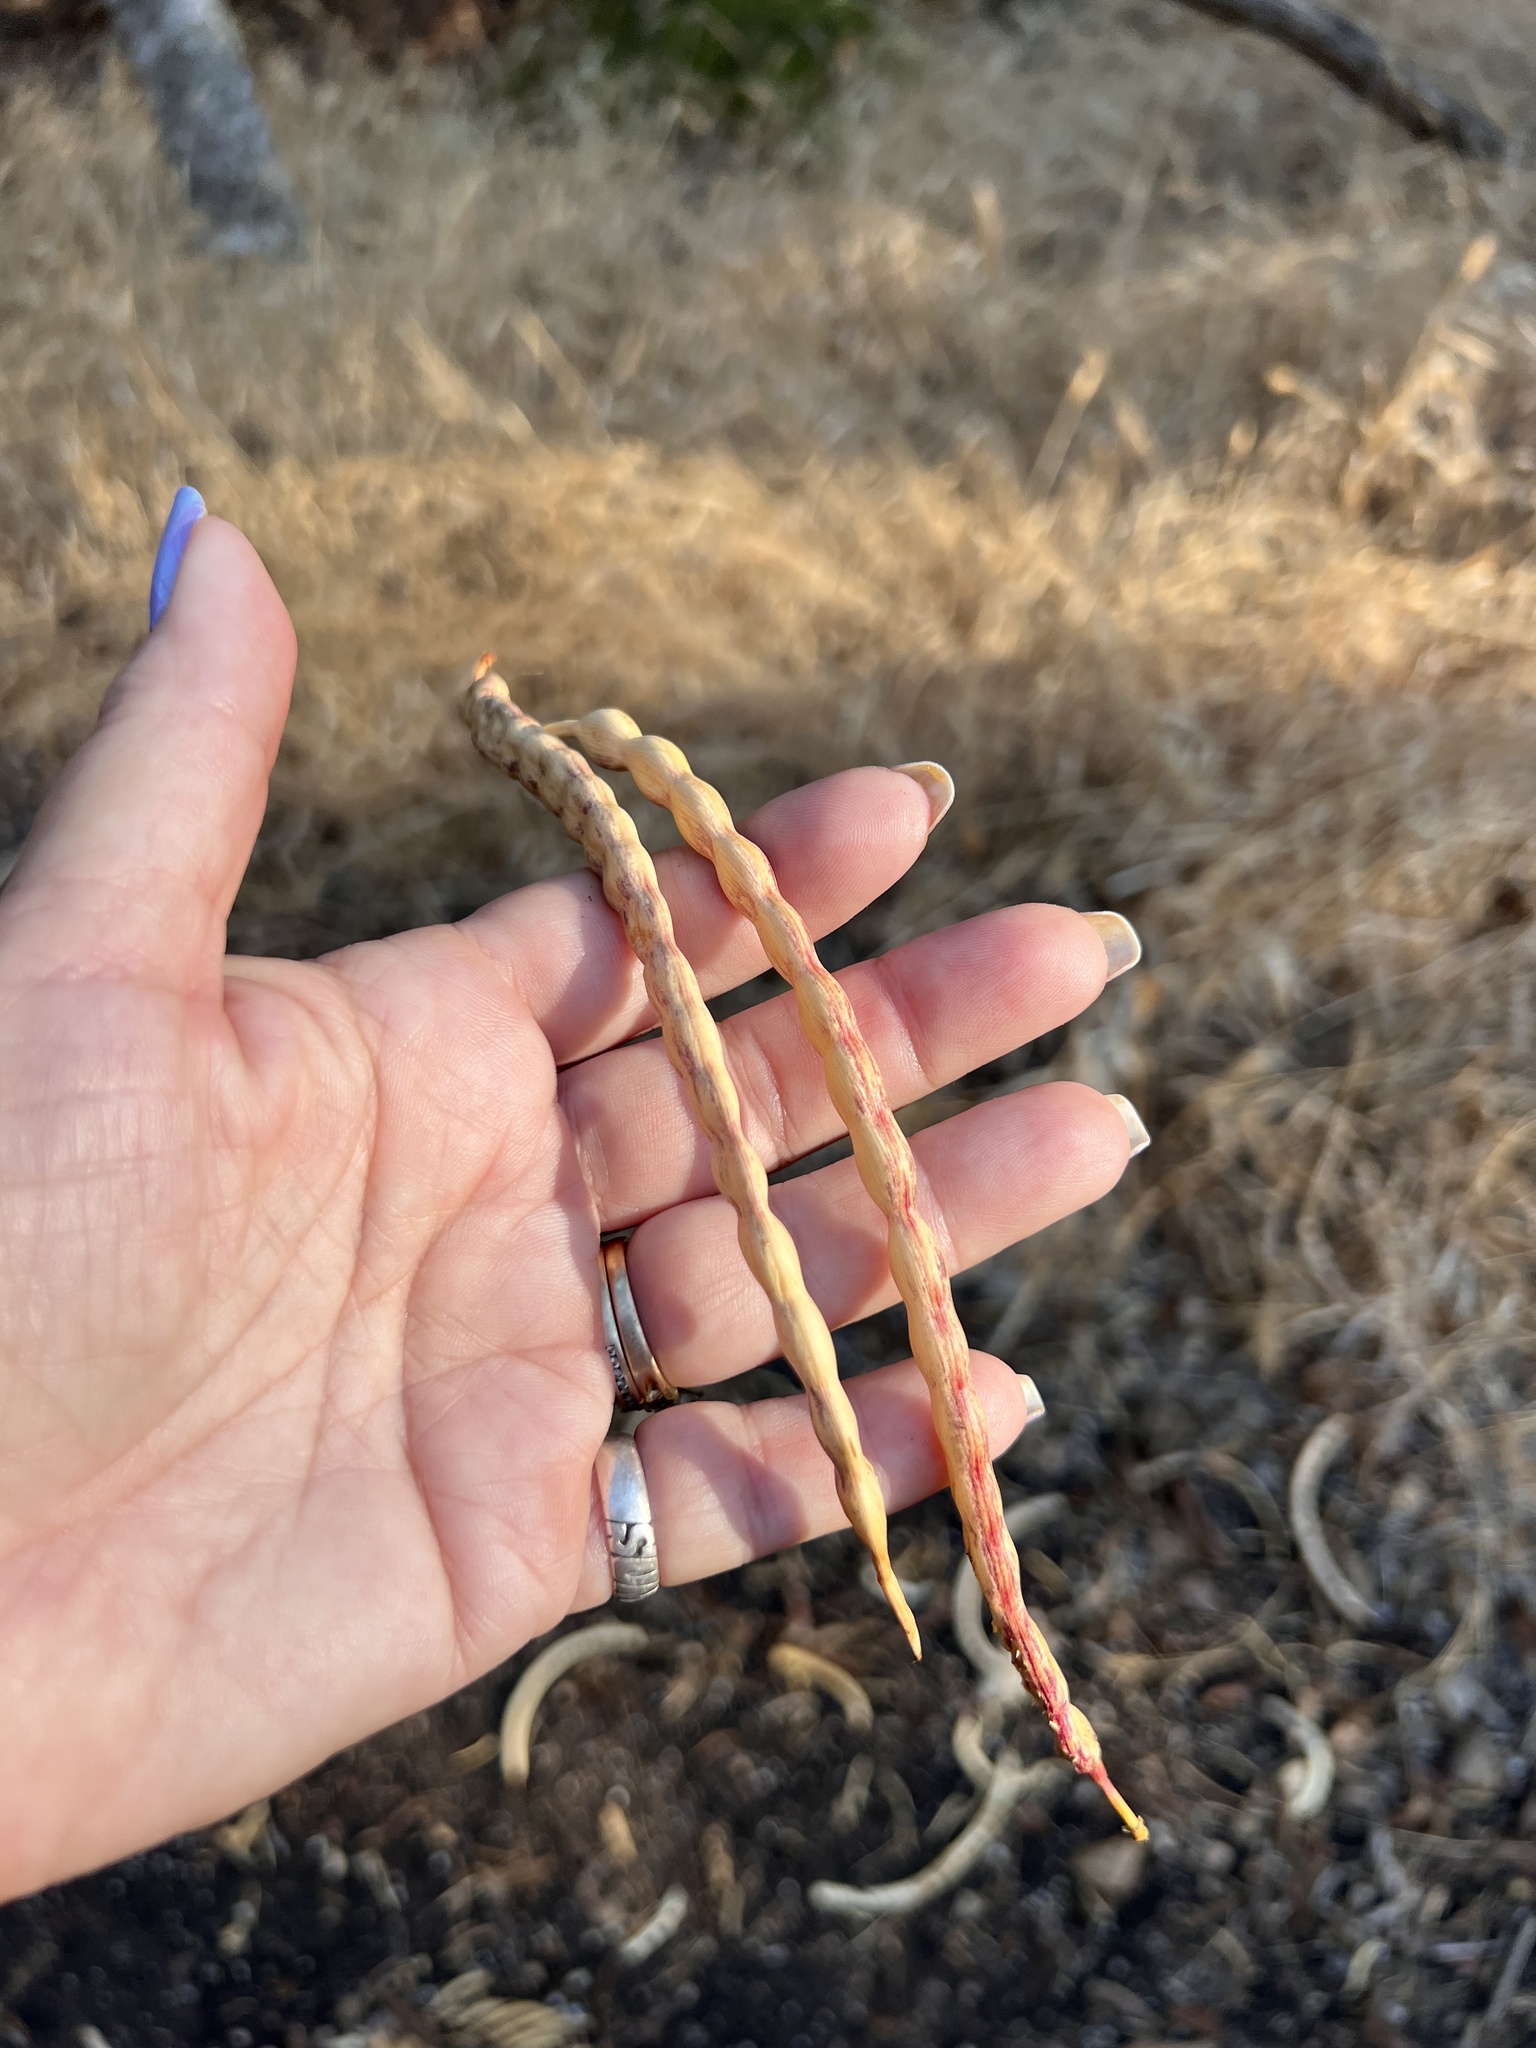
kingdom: Plantae
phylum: Tracheophyta
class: Magnoliopsida
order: Fabales
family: Fabaceae
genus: Prosopis
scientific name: Prosopis glandulosa
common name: Honey mesquite
